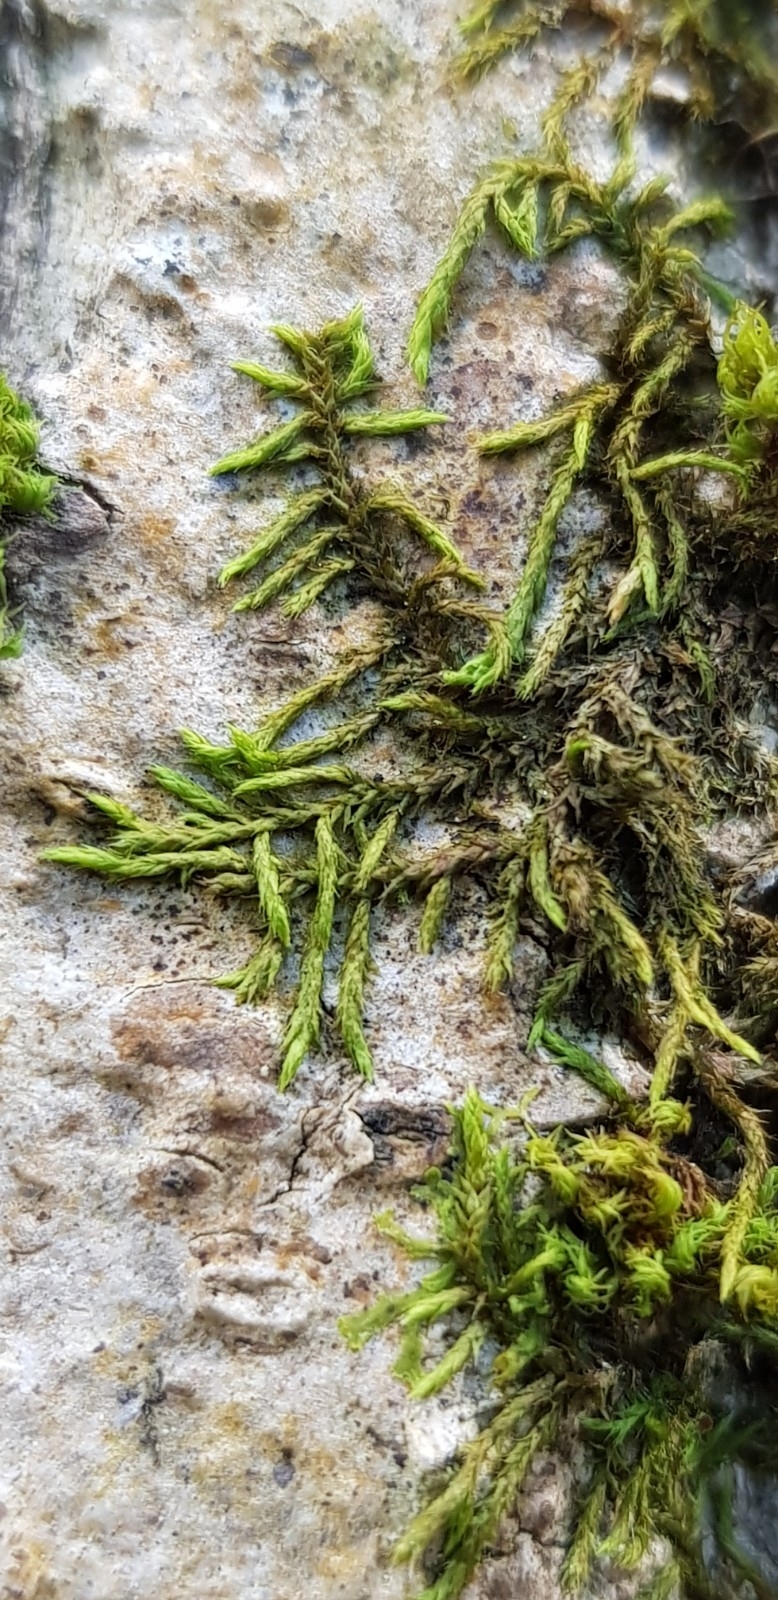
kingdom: Plantae
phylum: Bryophyta
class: Bryopsida
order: Hypnales
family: Cryphaeaceae
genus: Cryphaea
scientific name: Cryphaea heteromalla
